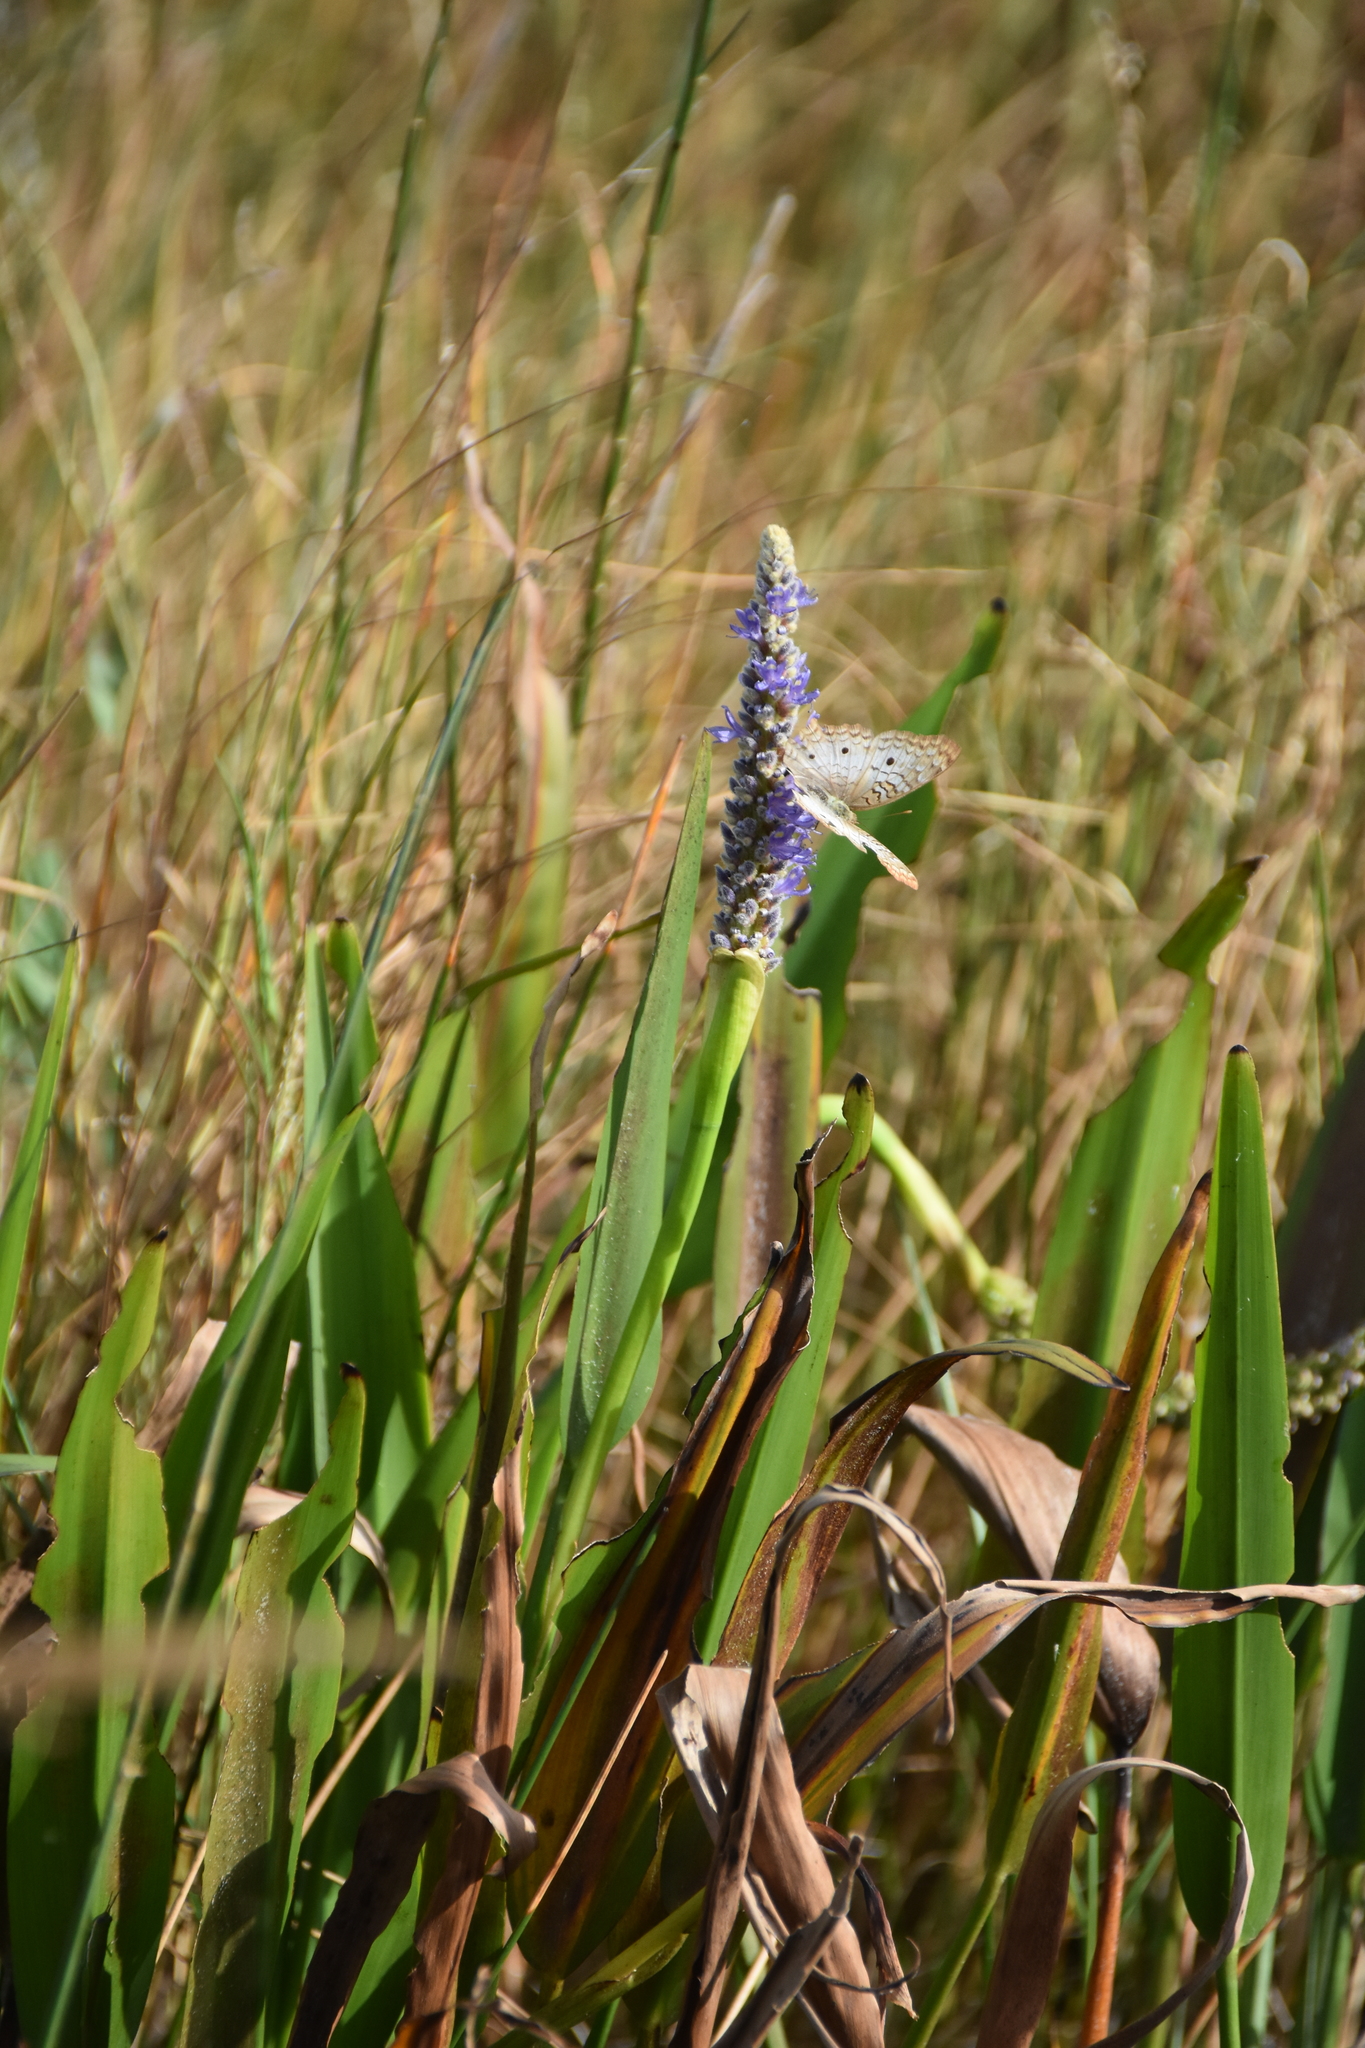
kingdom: Plantae
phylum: Tracheophyta
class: Liliopsida
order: Commelinales
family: Pontederiaceae
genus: Pontederia
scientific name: Pontederia cordata
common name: Pickerelweed
